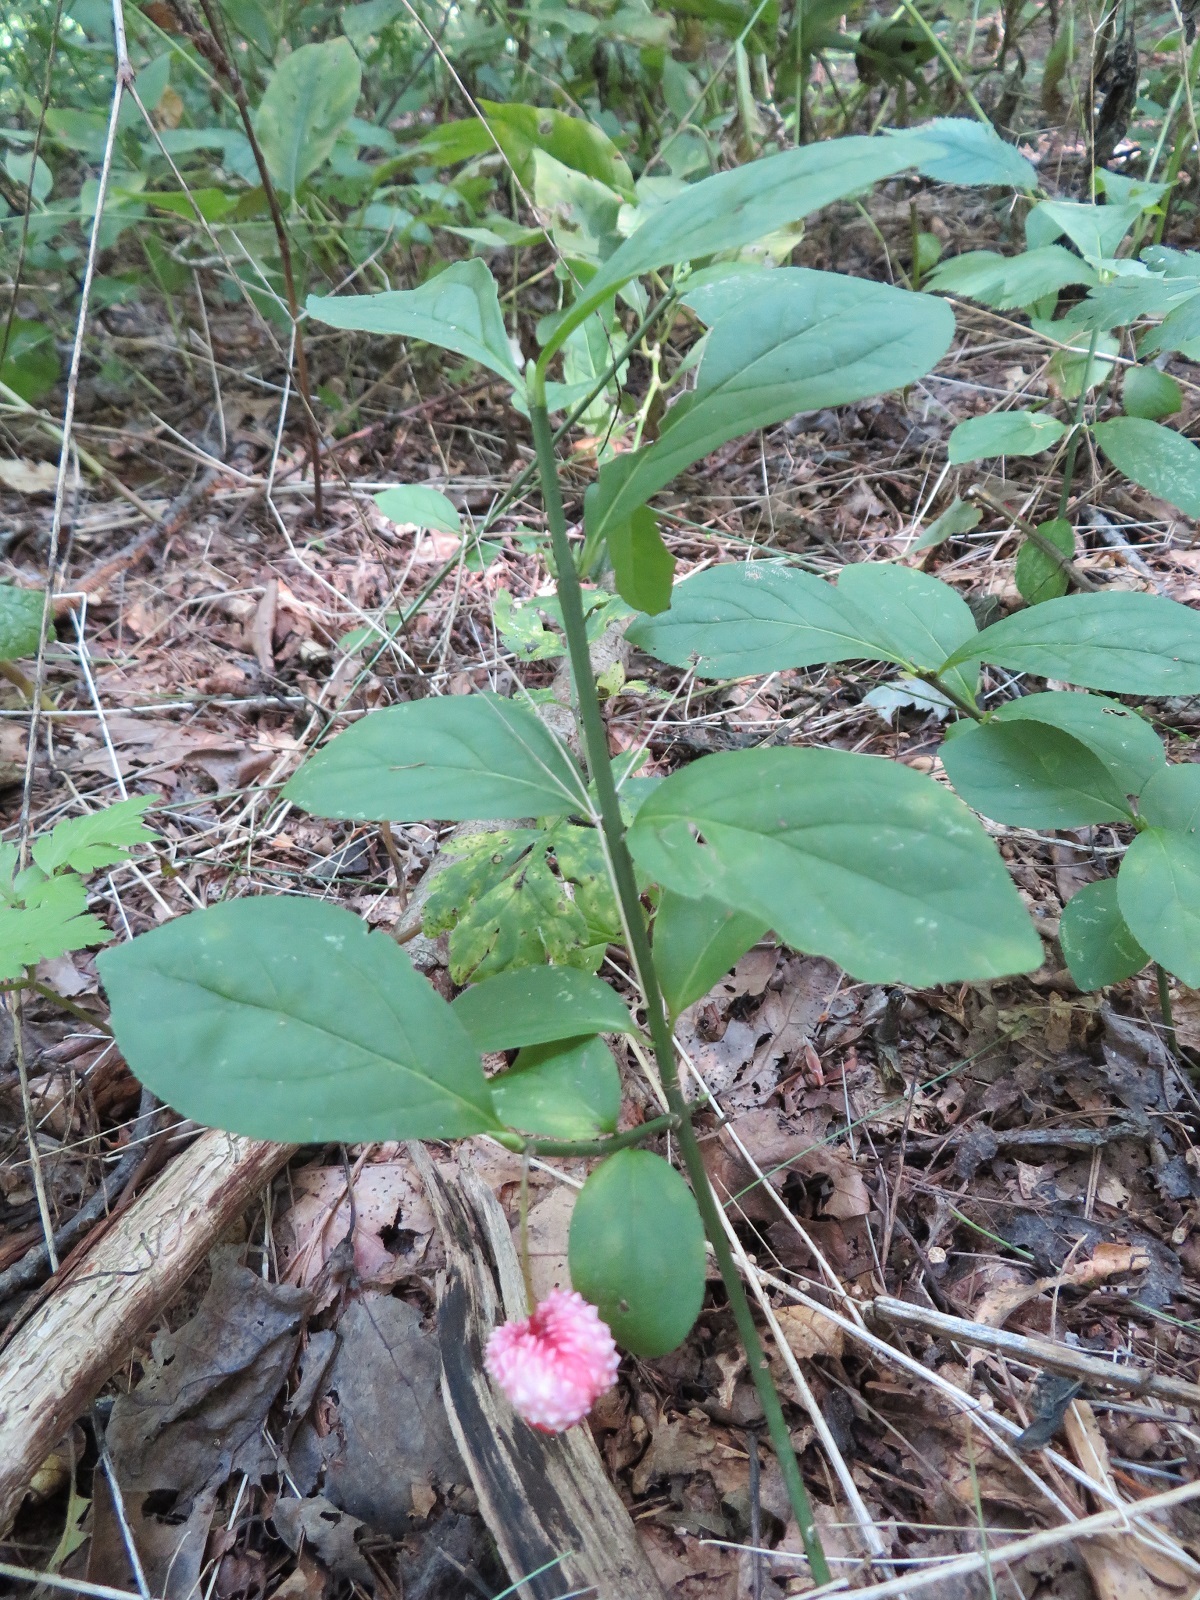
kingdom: Plantae
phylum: Tracheophyta
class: Magnoliopsida
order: Celastrales
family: Celastraceae
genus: Euonymus
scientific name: Euonymus obovatus
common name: Running strawberry-bush
